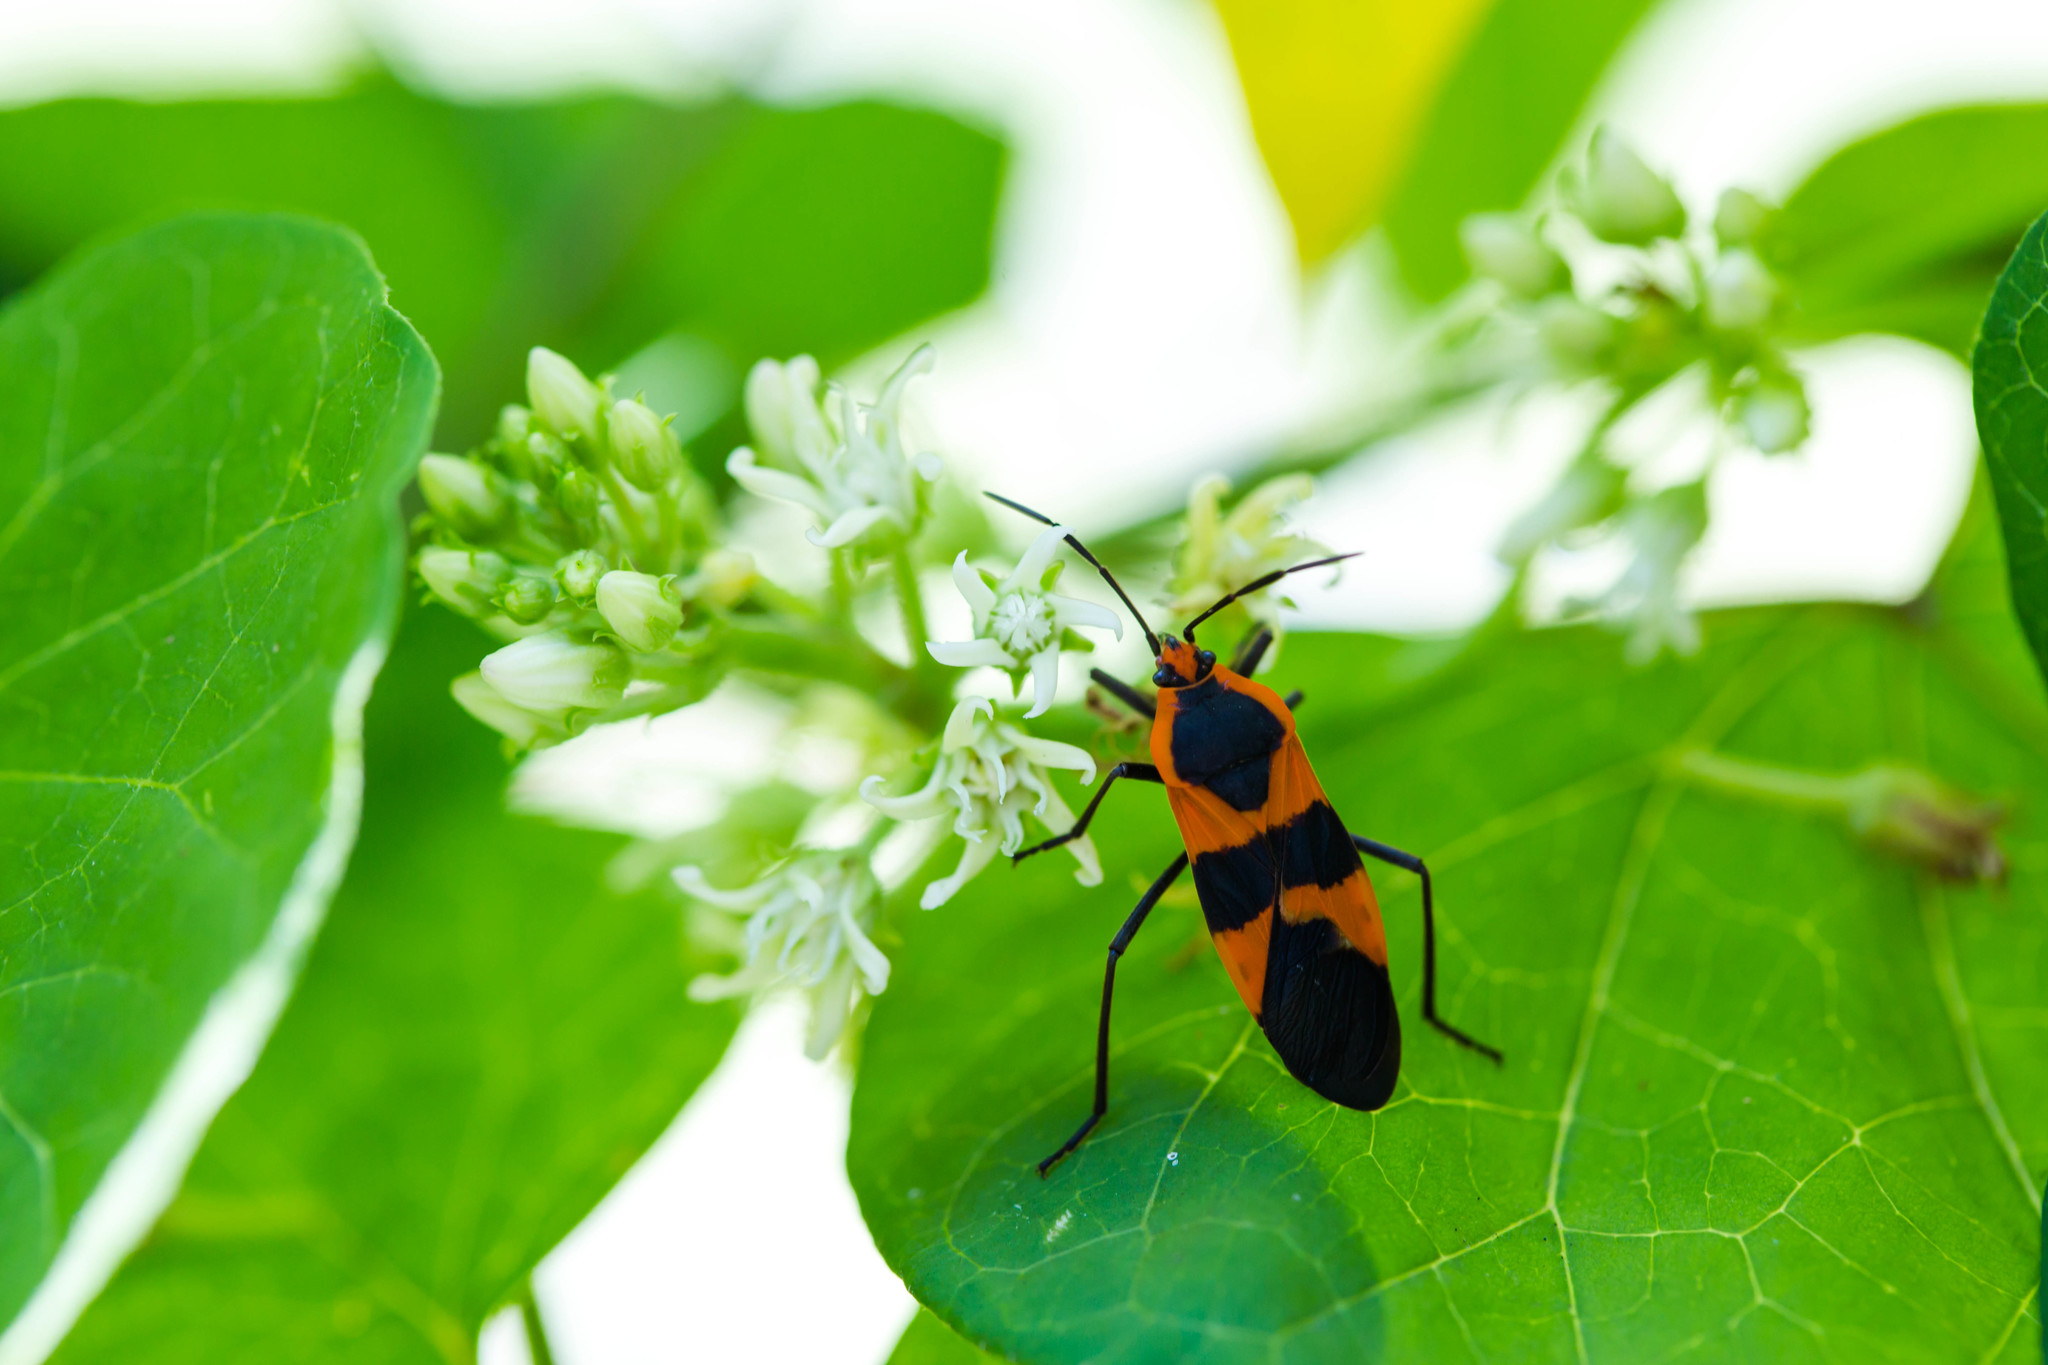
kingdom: Animalia
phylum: Arthropoda
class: Insecta
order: Hemiptera
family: Lygaeidae
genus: Oncopeltus
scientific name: Oncopeltus fasciatus
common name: Large milkweed bug
